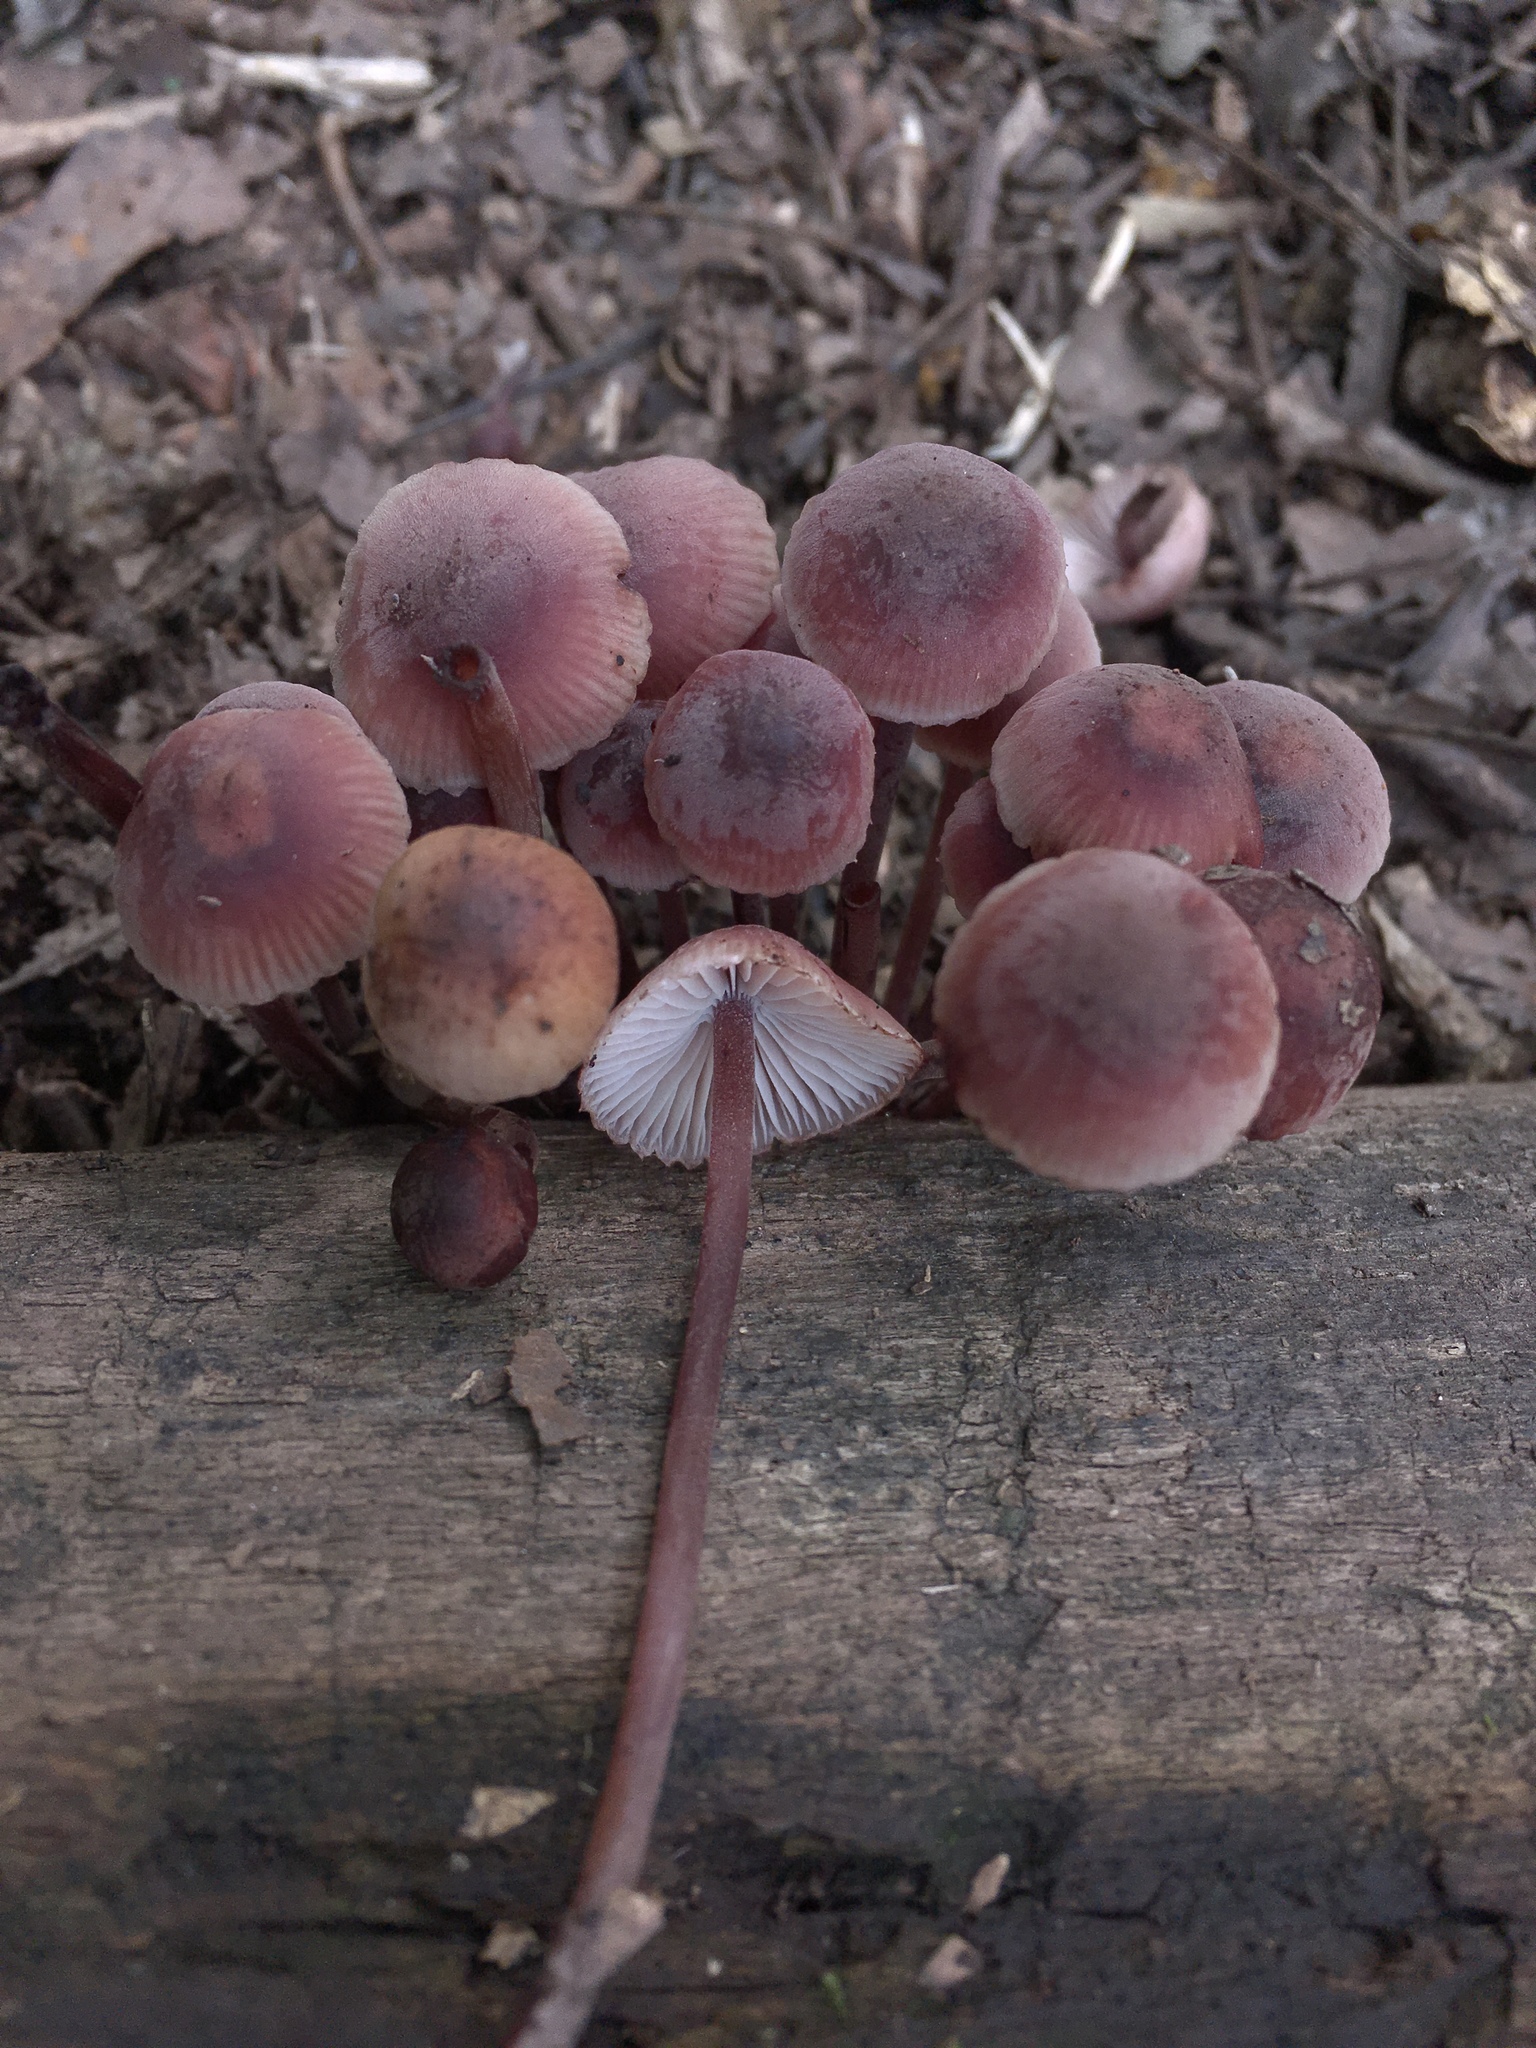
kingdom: Fungi
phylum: Basidiomycota
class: Agaricomycetes
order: Agaricales
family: Mycenaceae
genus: Mycena
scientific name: Mycena haematopus
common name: Burgundydrop bonnet
